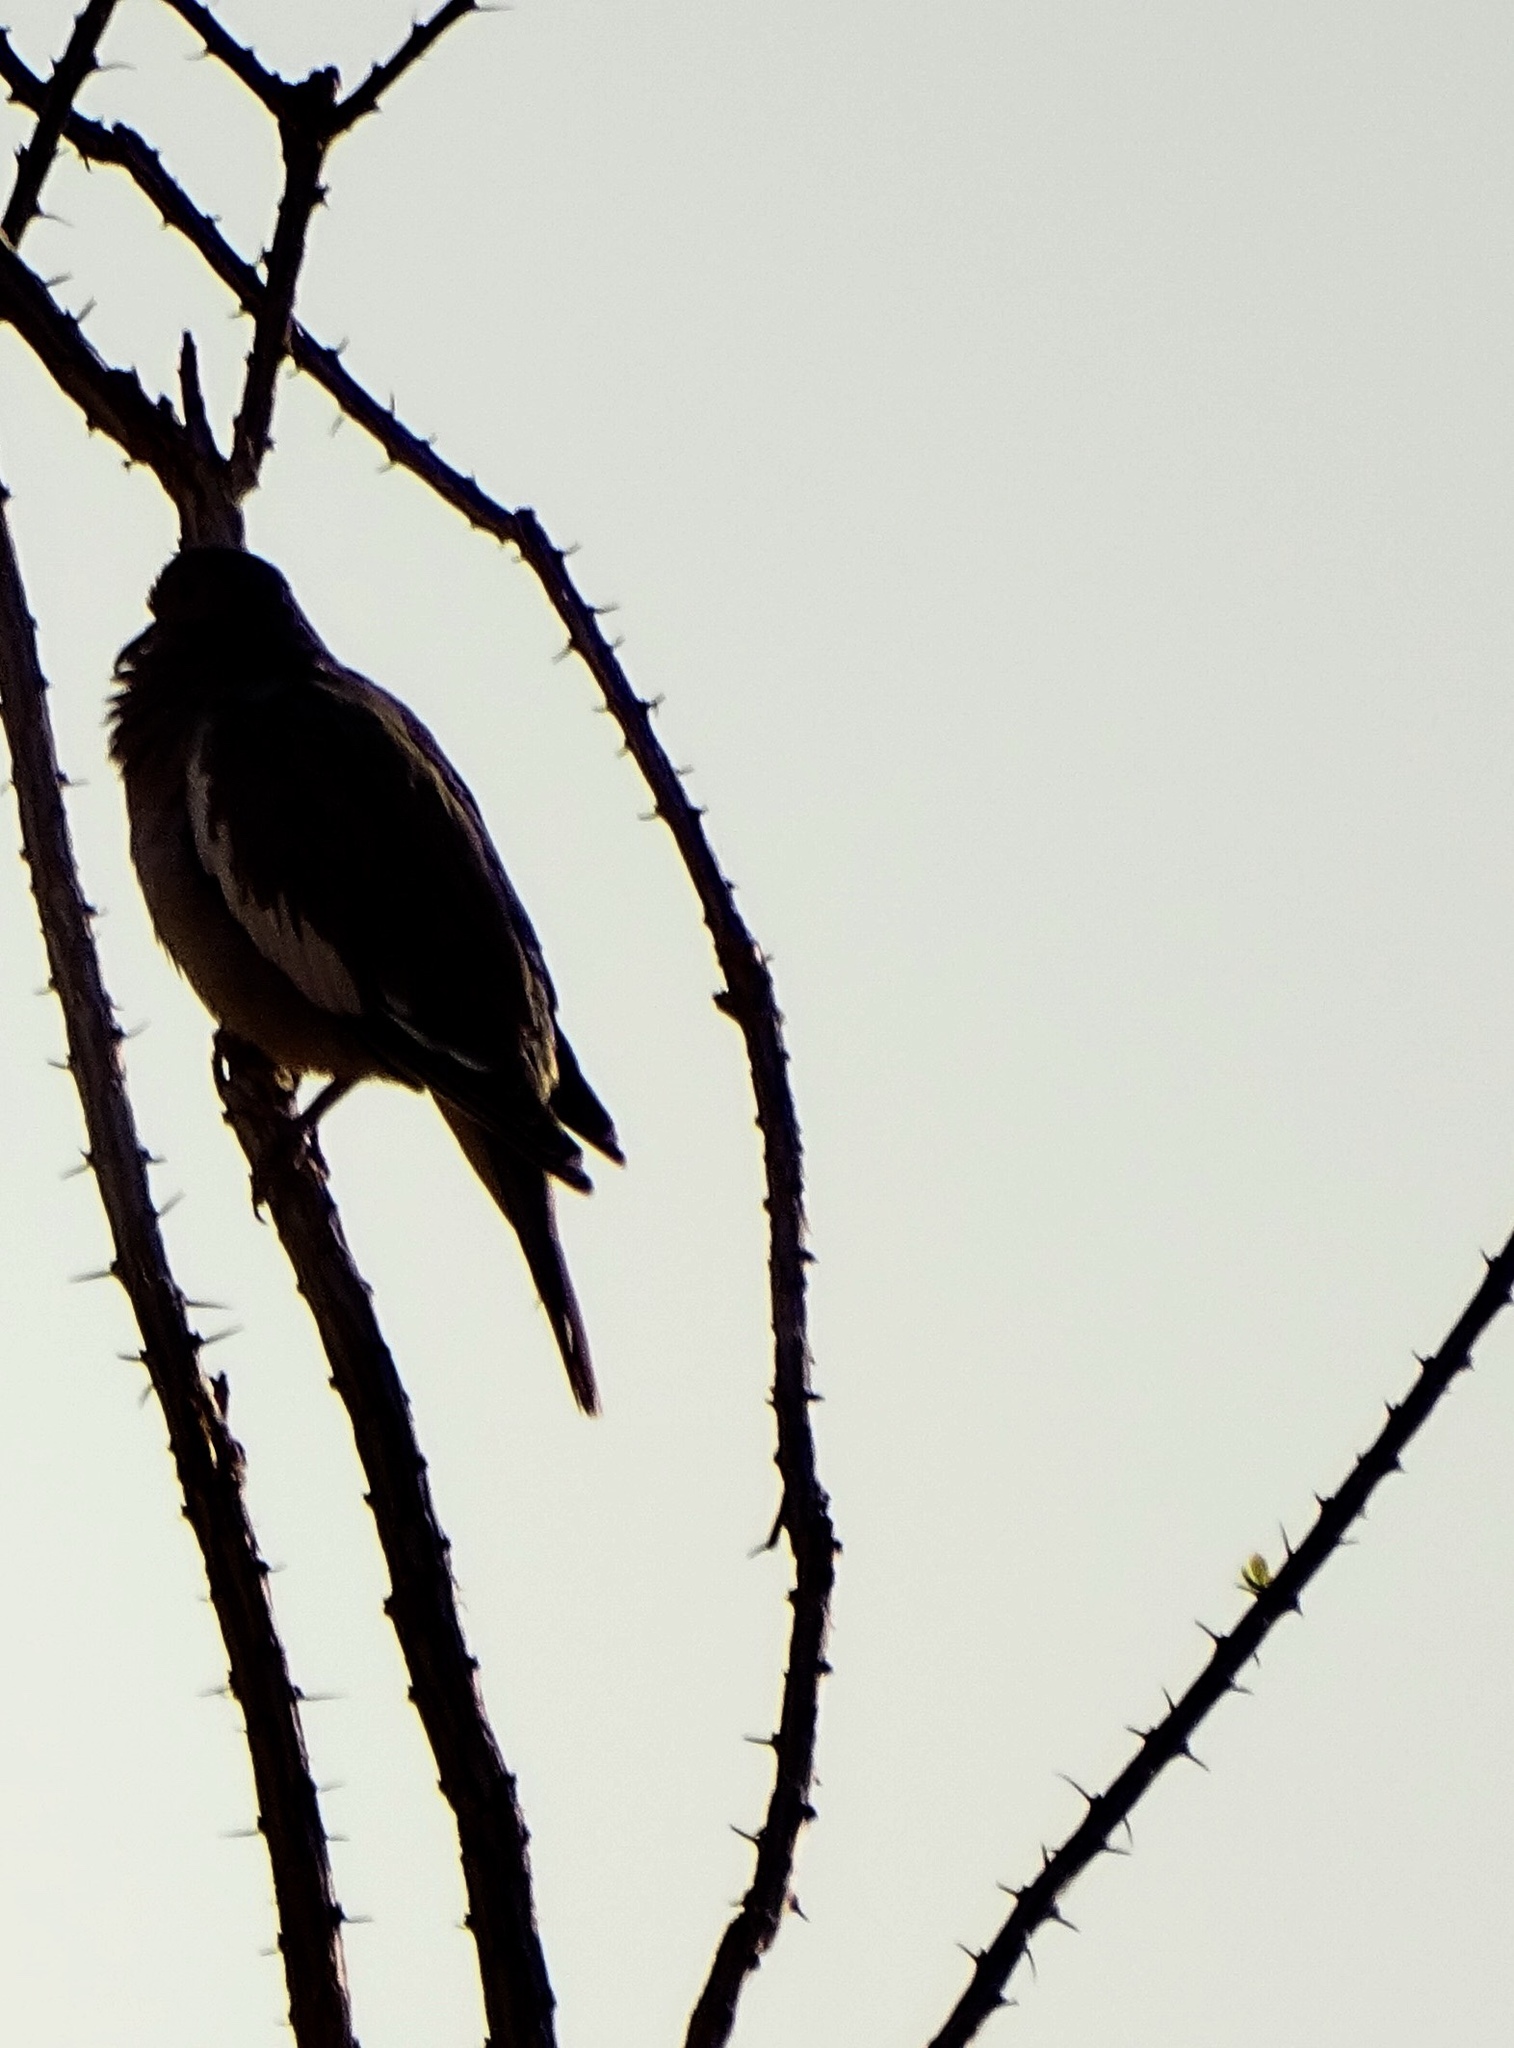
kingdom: Animalia
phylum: Chordata
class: Aves
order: Columbiformes
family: Columbidae
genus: Zenaida
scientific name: Zenaida asiatica
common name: White-winged dove
